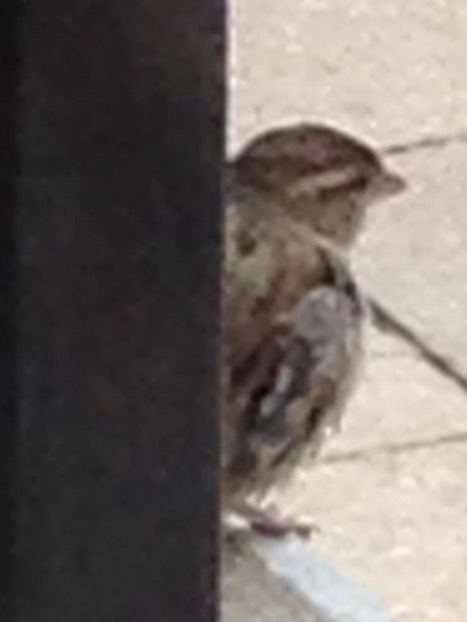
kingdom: Animalia
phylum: Chordata
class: Aves
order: Passeriformes
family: Passeridae
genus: Passer
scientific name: Passer domesticus
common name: House sparrow
